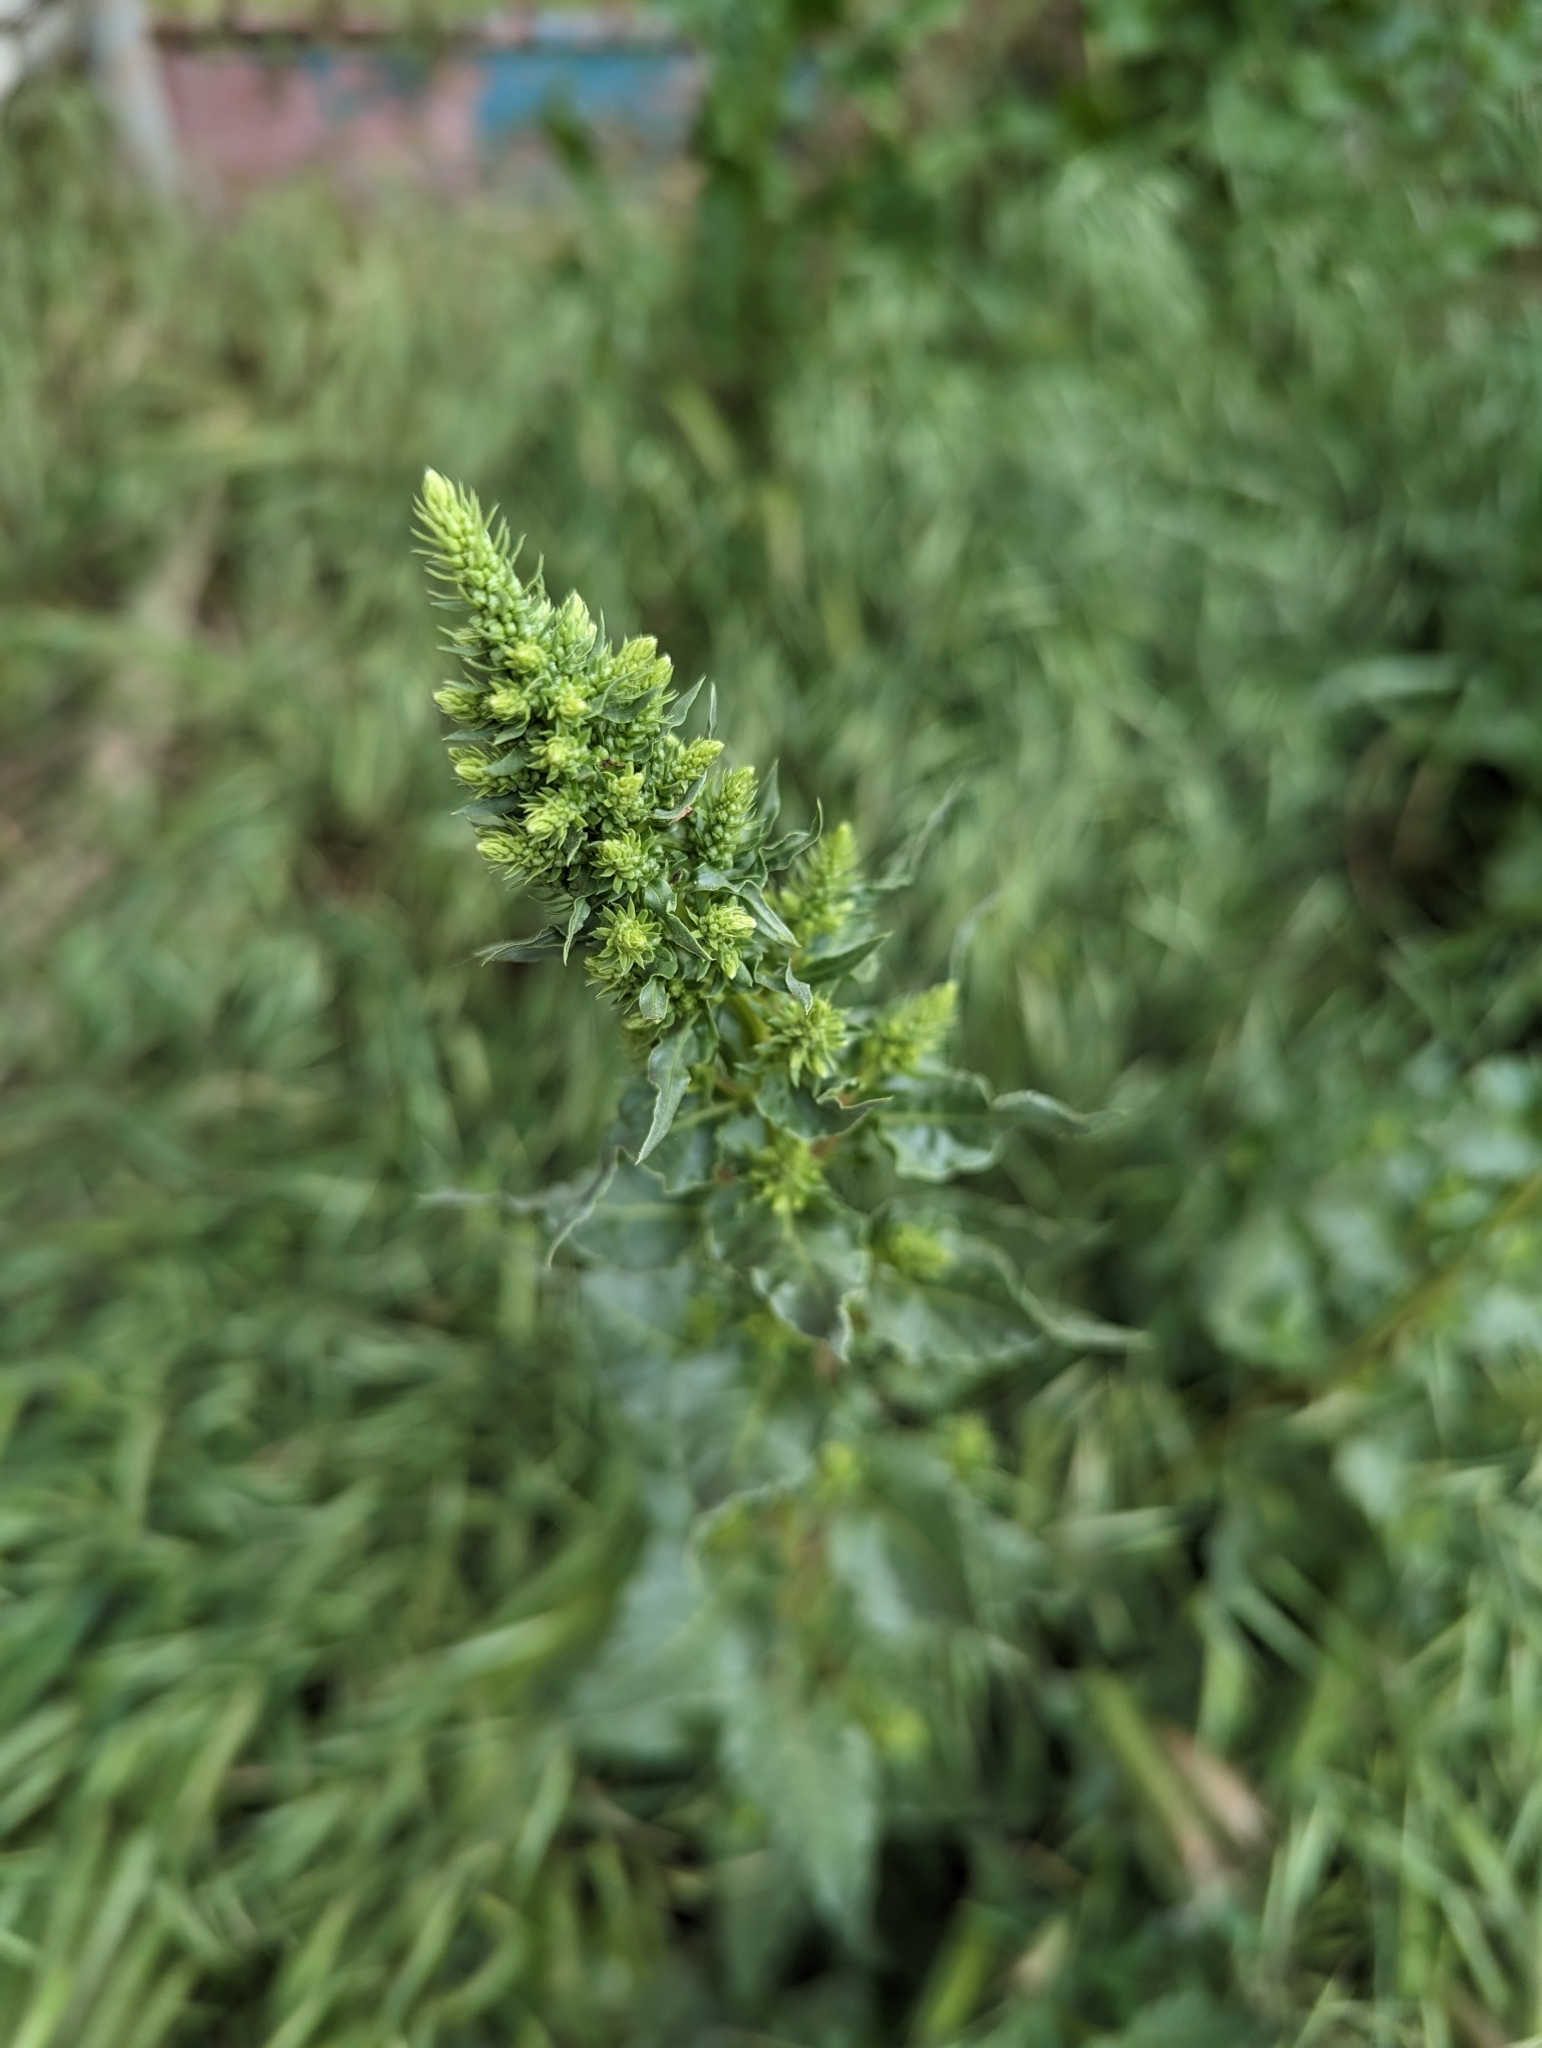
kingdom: Plantae
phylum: Tracheophyta
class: Magnoliopsida
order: Caryophyllales
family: Amaranthaceae
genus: Beta
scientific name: Beta vulgaris
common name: Beet
